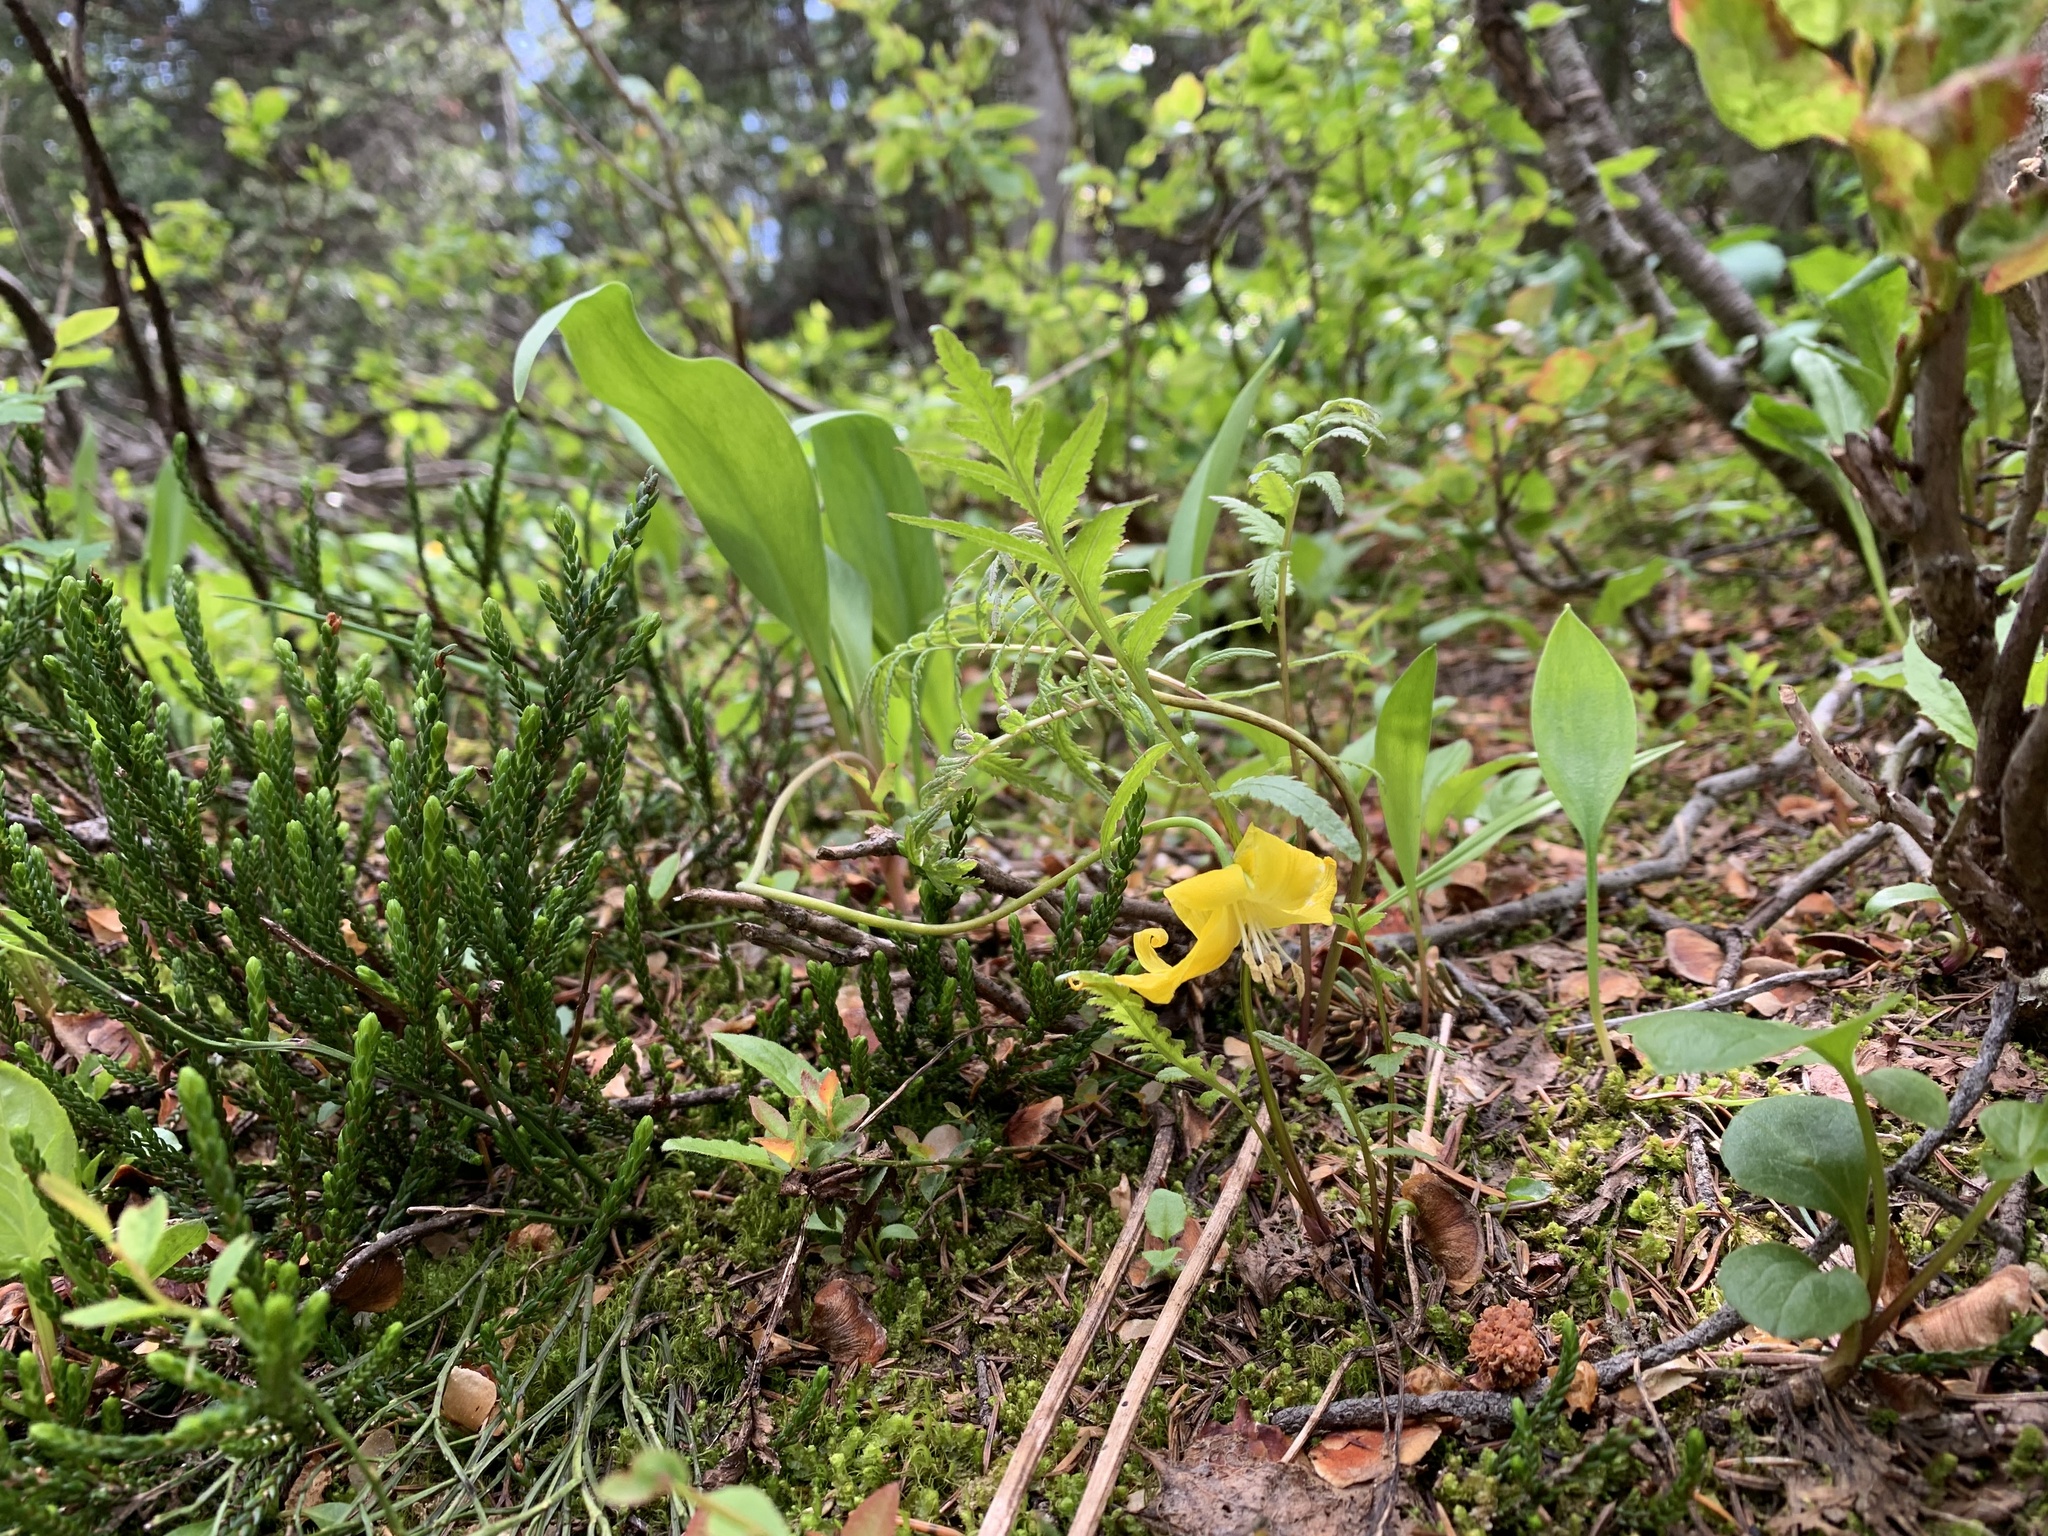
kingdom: Plantae
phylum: Tracheophyta
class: Liliopsida
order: Liliales
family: Liliaceae
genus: Erythronium
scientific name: Erythronium grandiflorum
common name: Avalanche-lily
